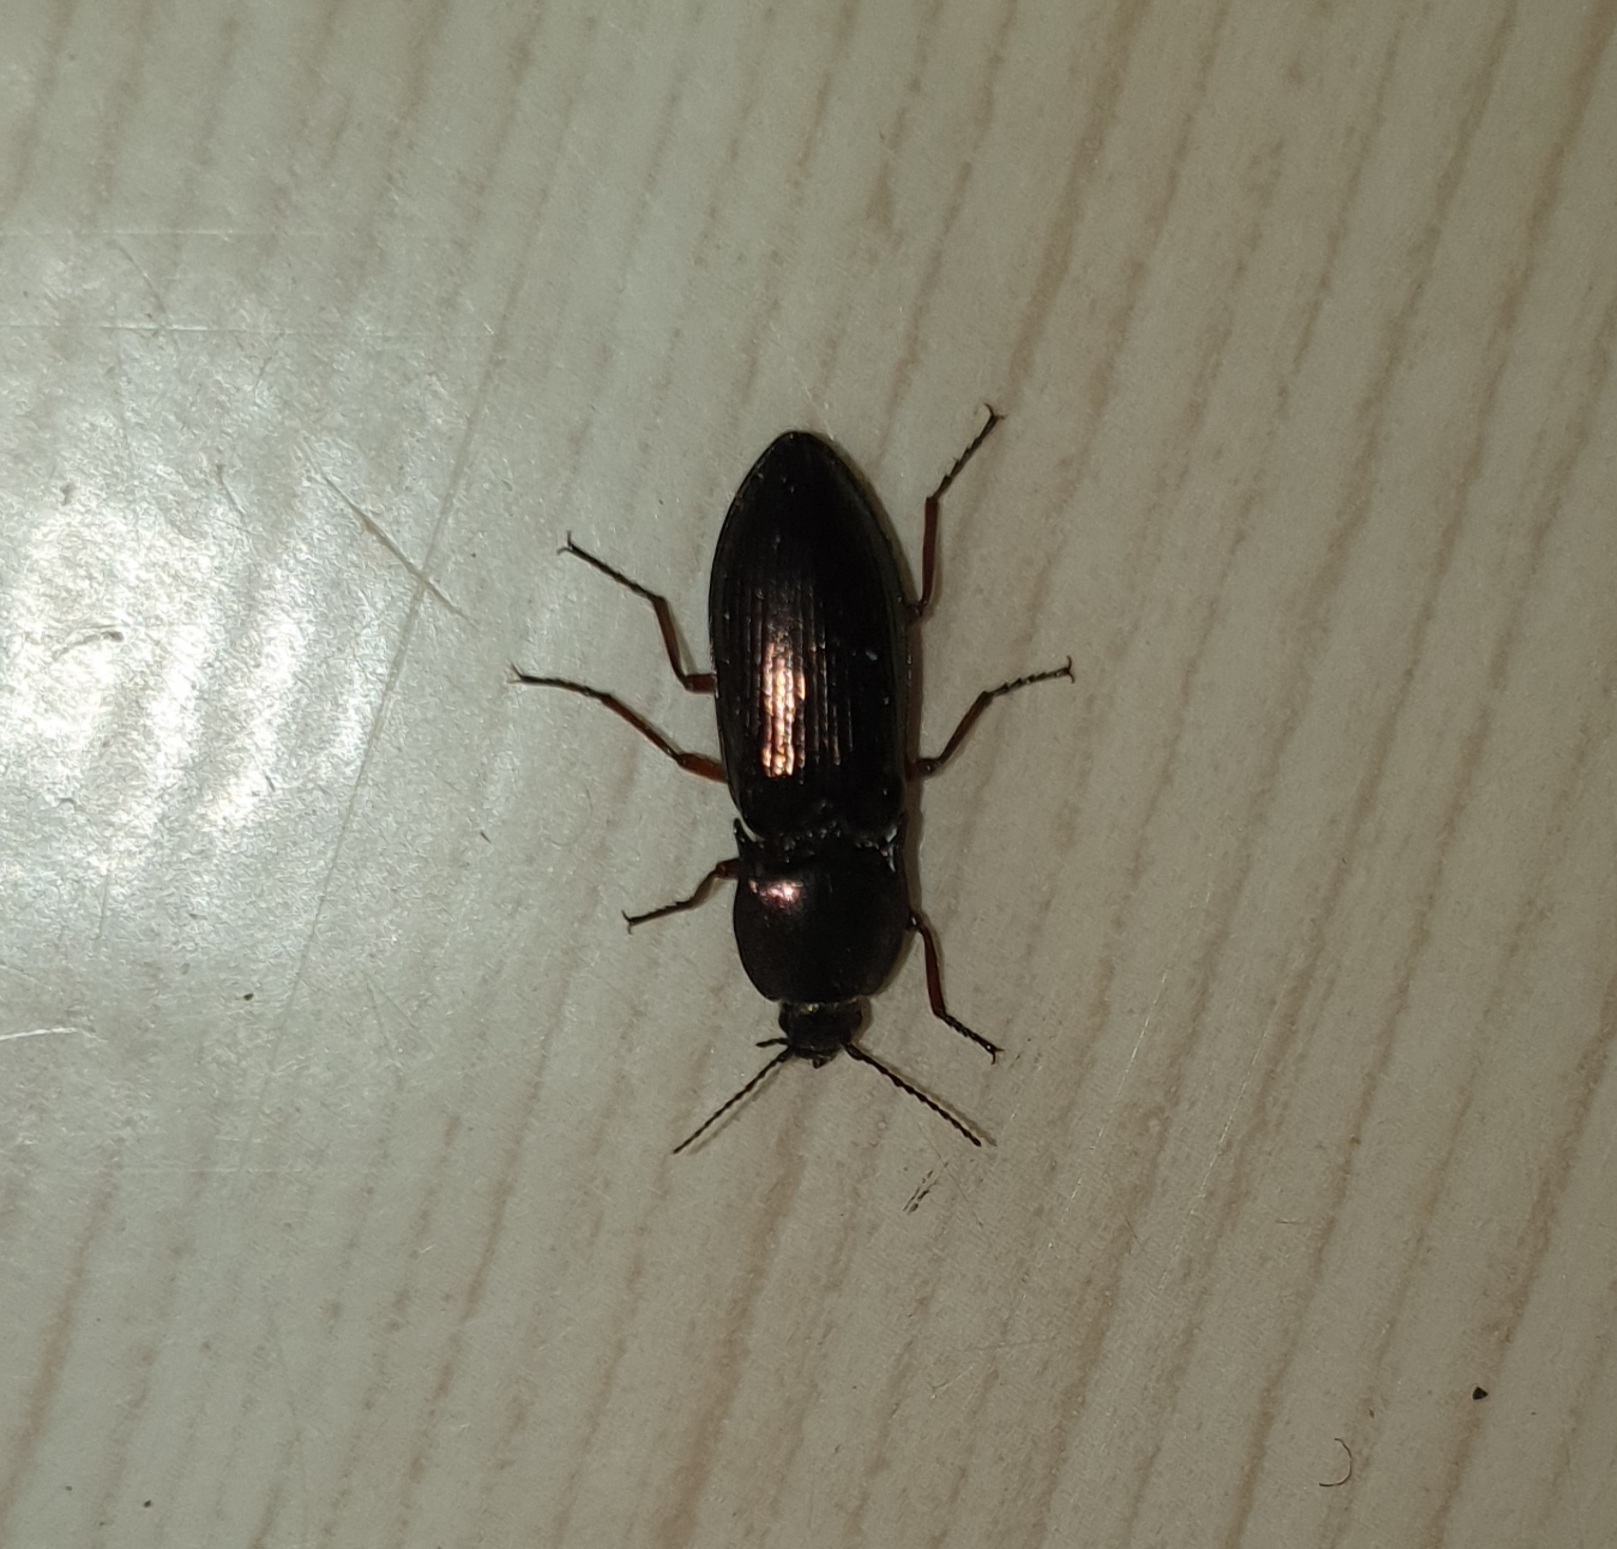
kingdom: Animalia
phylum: Arthropoda
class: Insecta
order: Coleoptera
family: Elateridae
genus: Selatosomus
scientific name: Selatosomus aeneus
